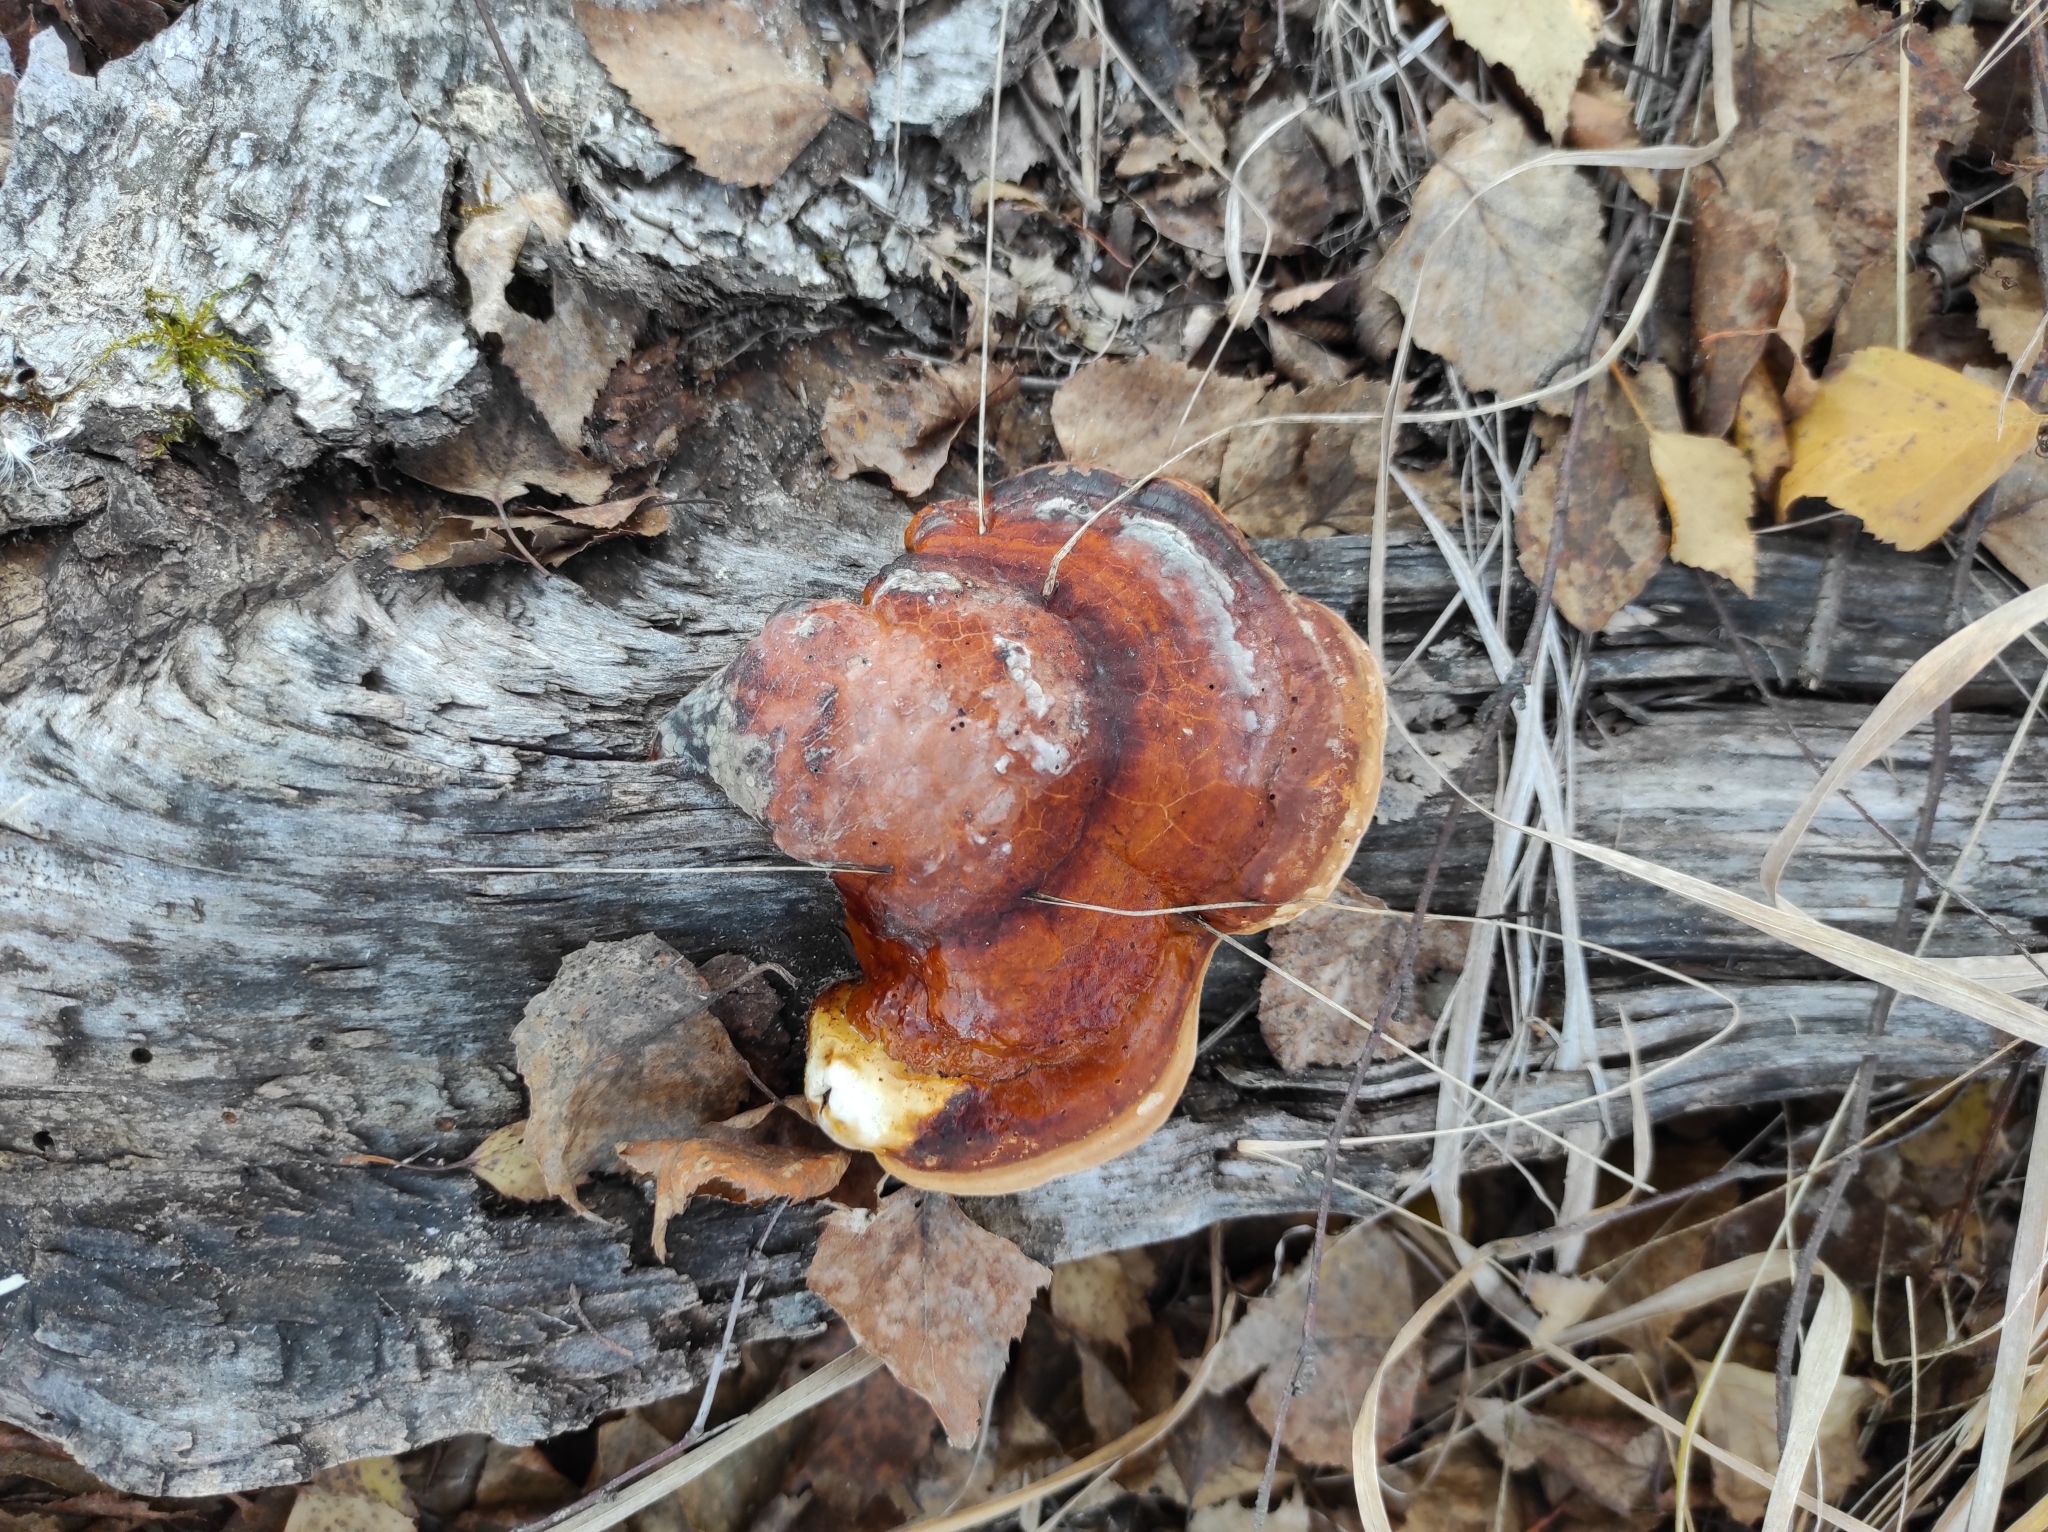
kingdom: Fungi
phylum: Basidiomycota
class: Agaricomycetes
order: Polyporales
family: Fomitopsidaceae
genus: Fomitopsis
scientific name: Fomitopsis pinicola
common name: Red-belted bracket
